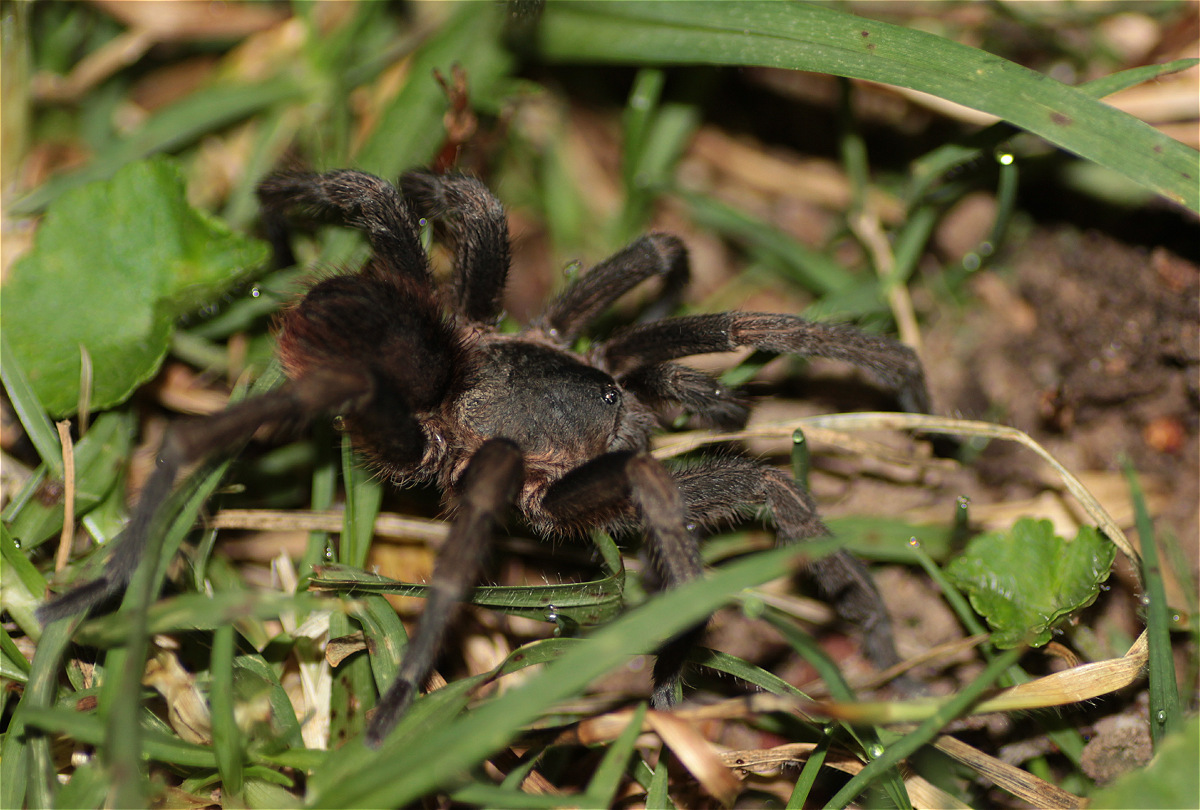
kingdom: Animalia
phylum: Arthropoda
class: Arachnida
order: Araneae
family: Theraphosidae
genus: Cyclosternum
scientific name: Cyclosternum schmardae
